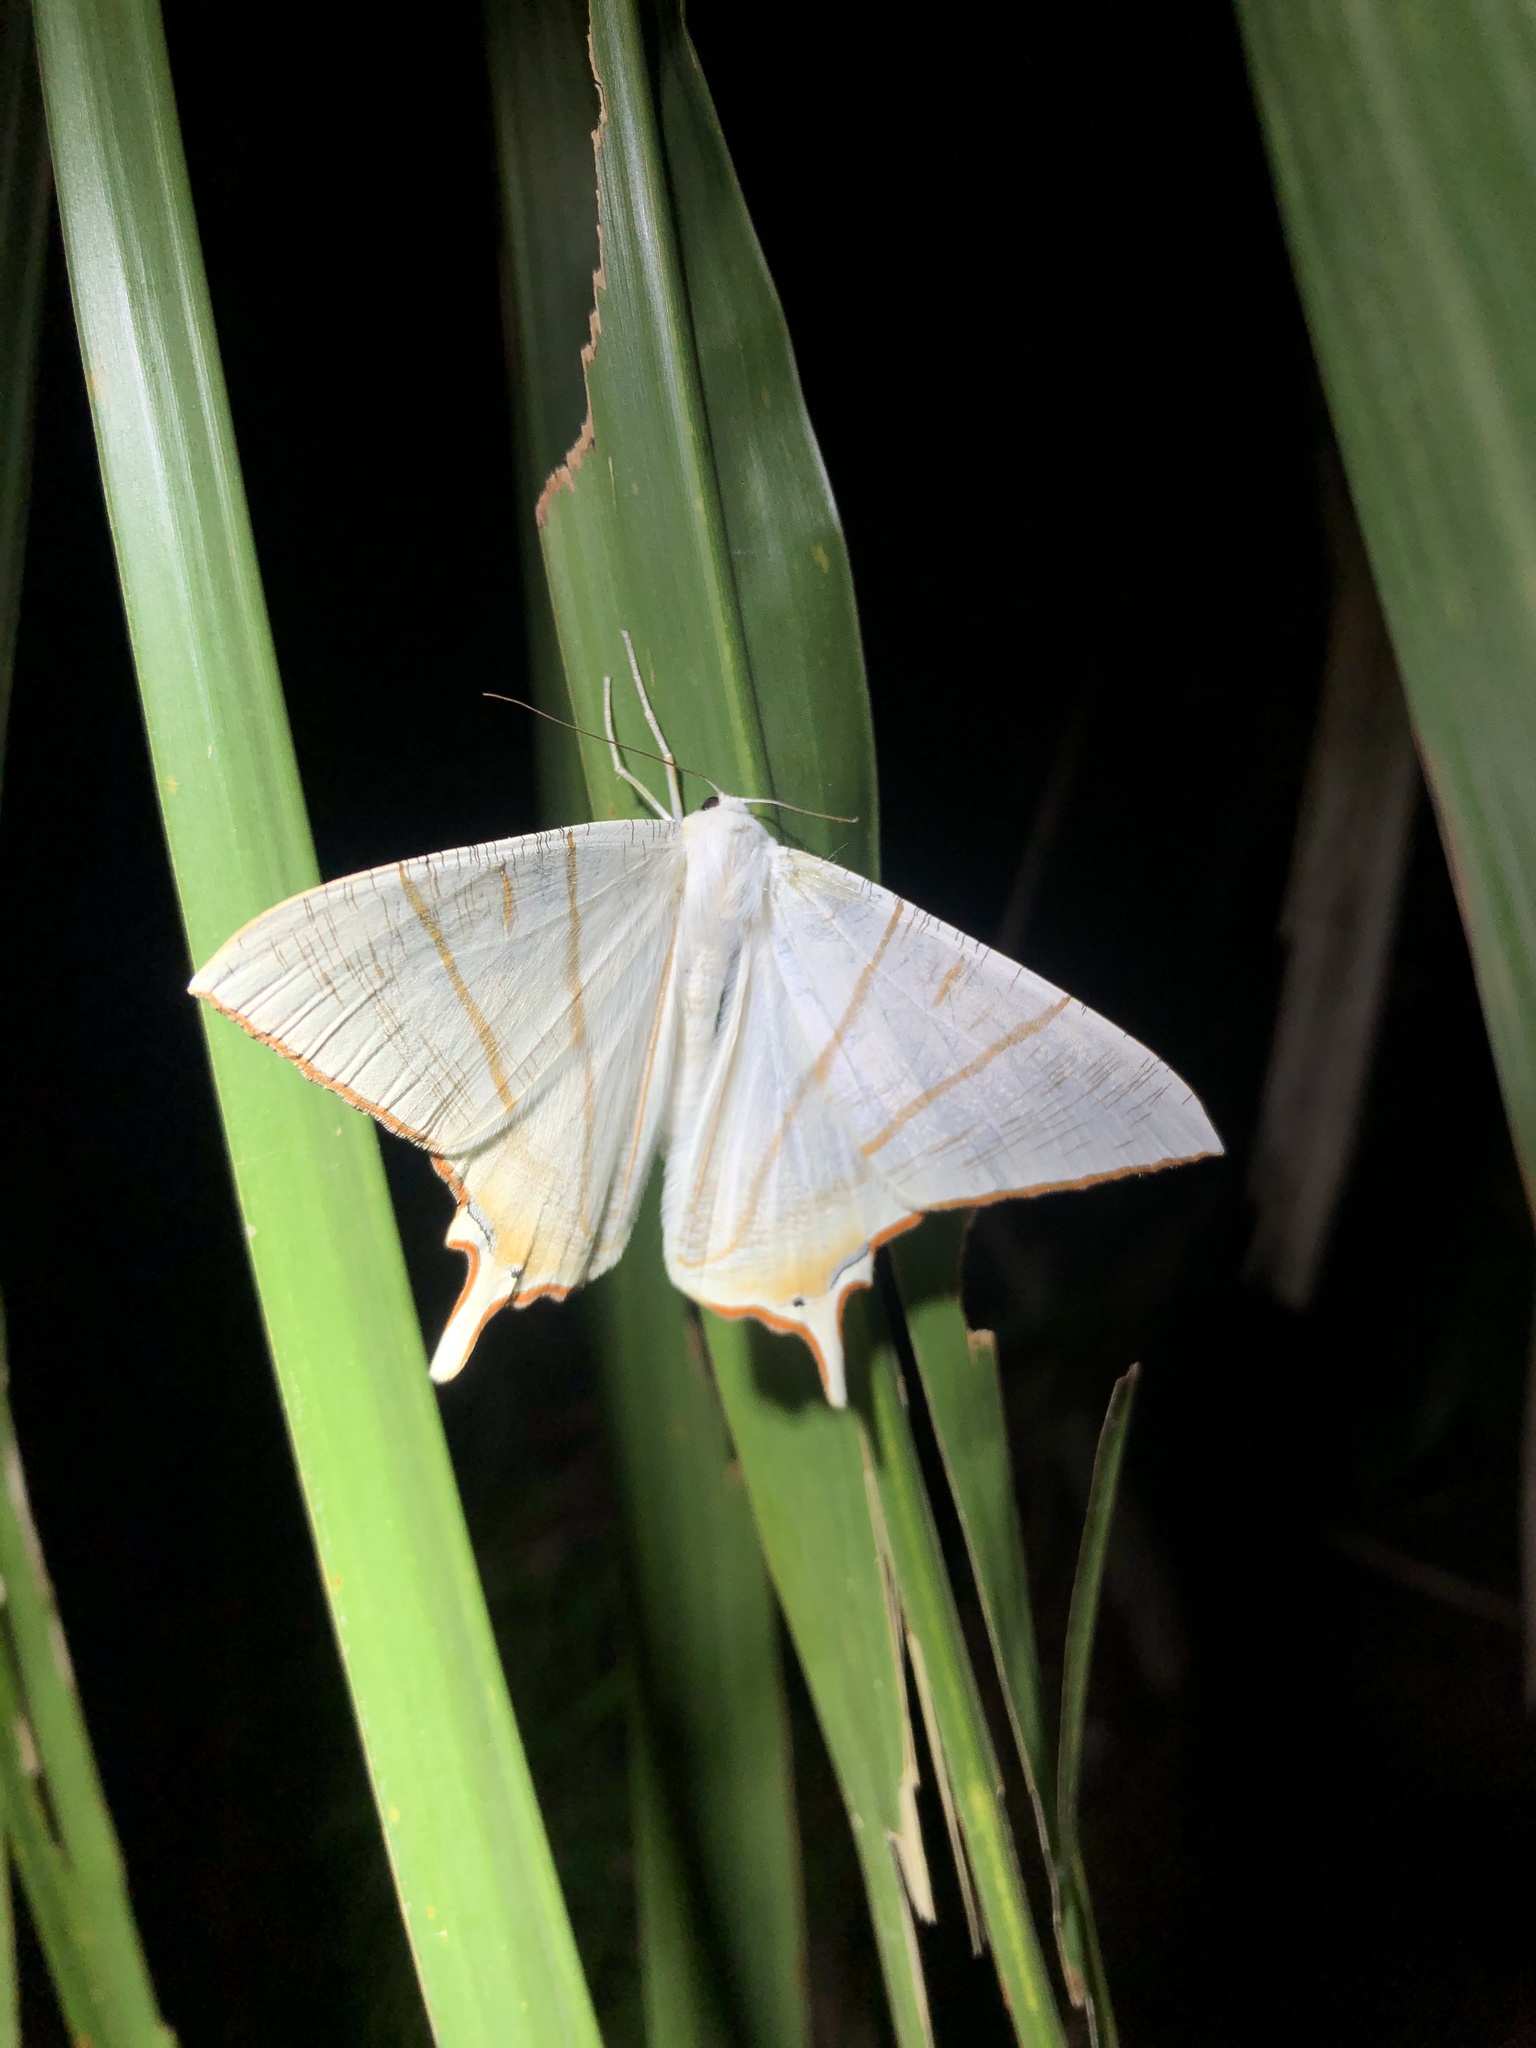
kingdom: Animalia
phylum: Arthropoda
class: Insecta
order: Lepidoptera
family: Geometridae
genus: Ourapteryx
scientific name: Ourapteryx clara
